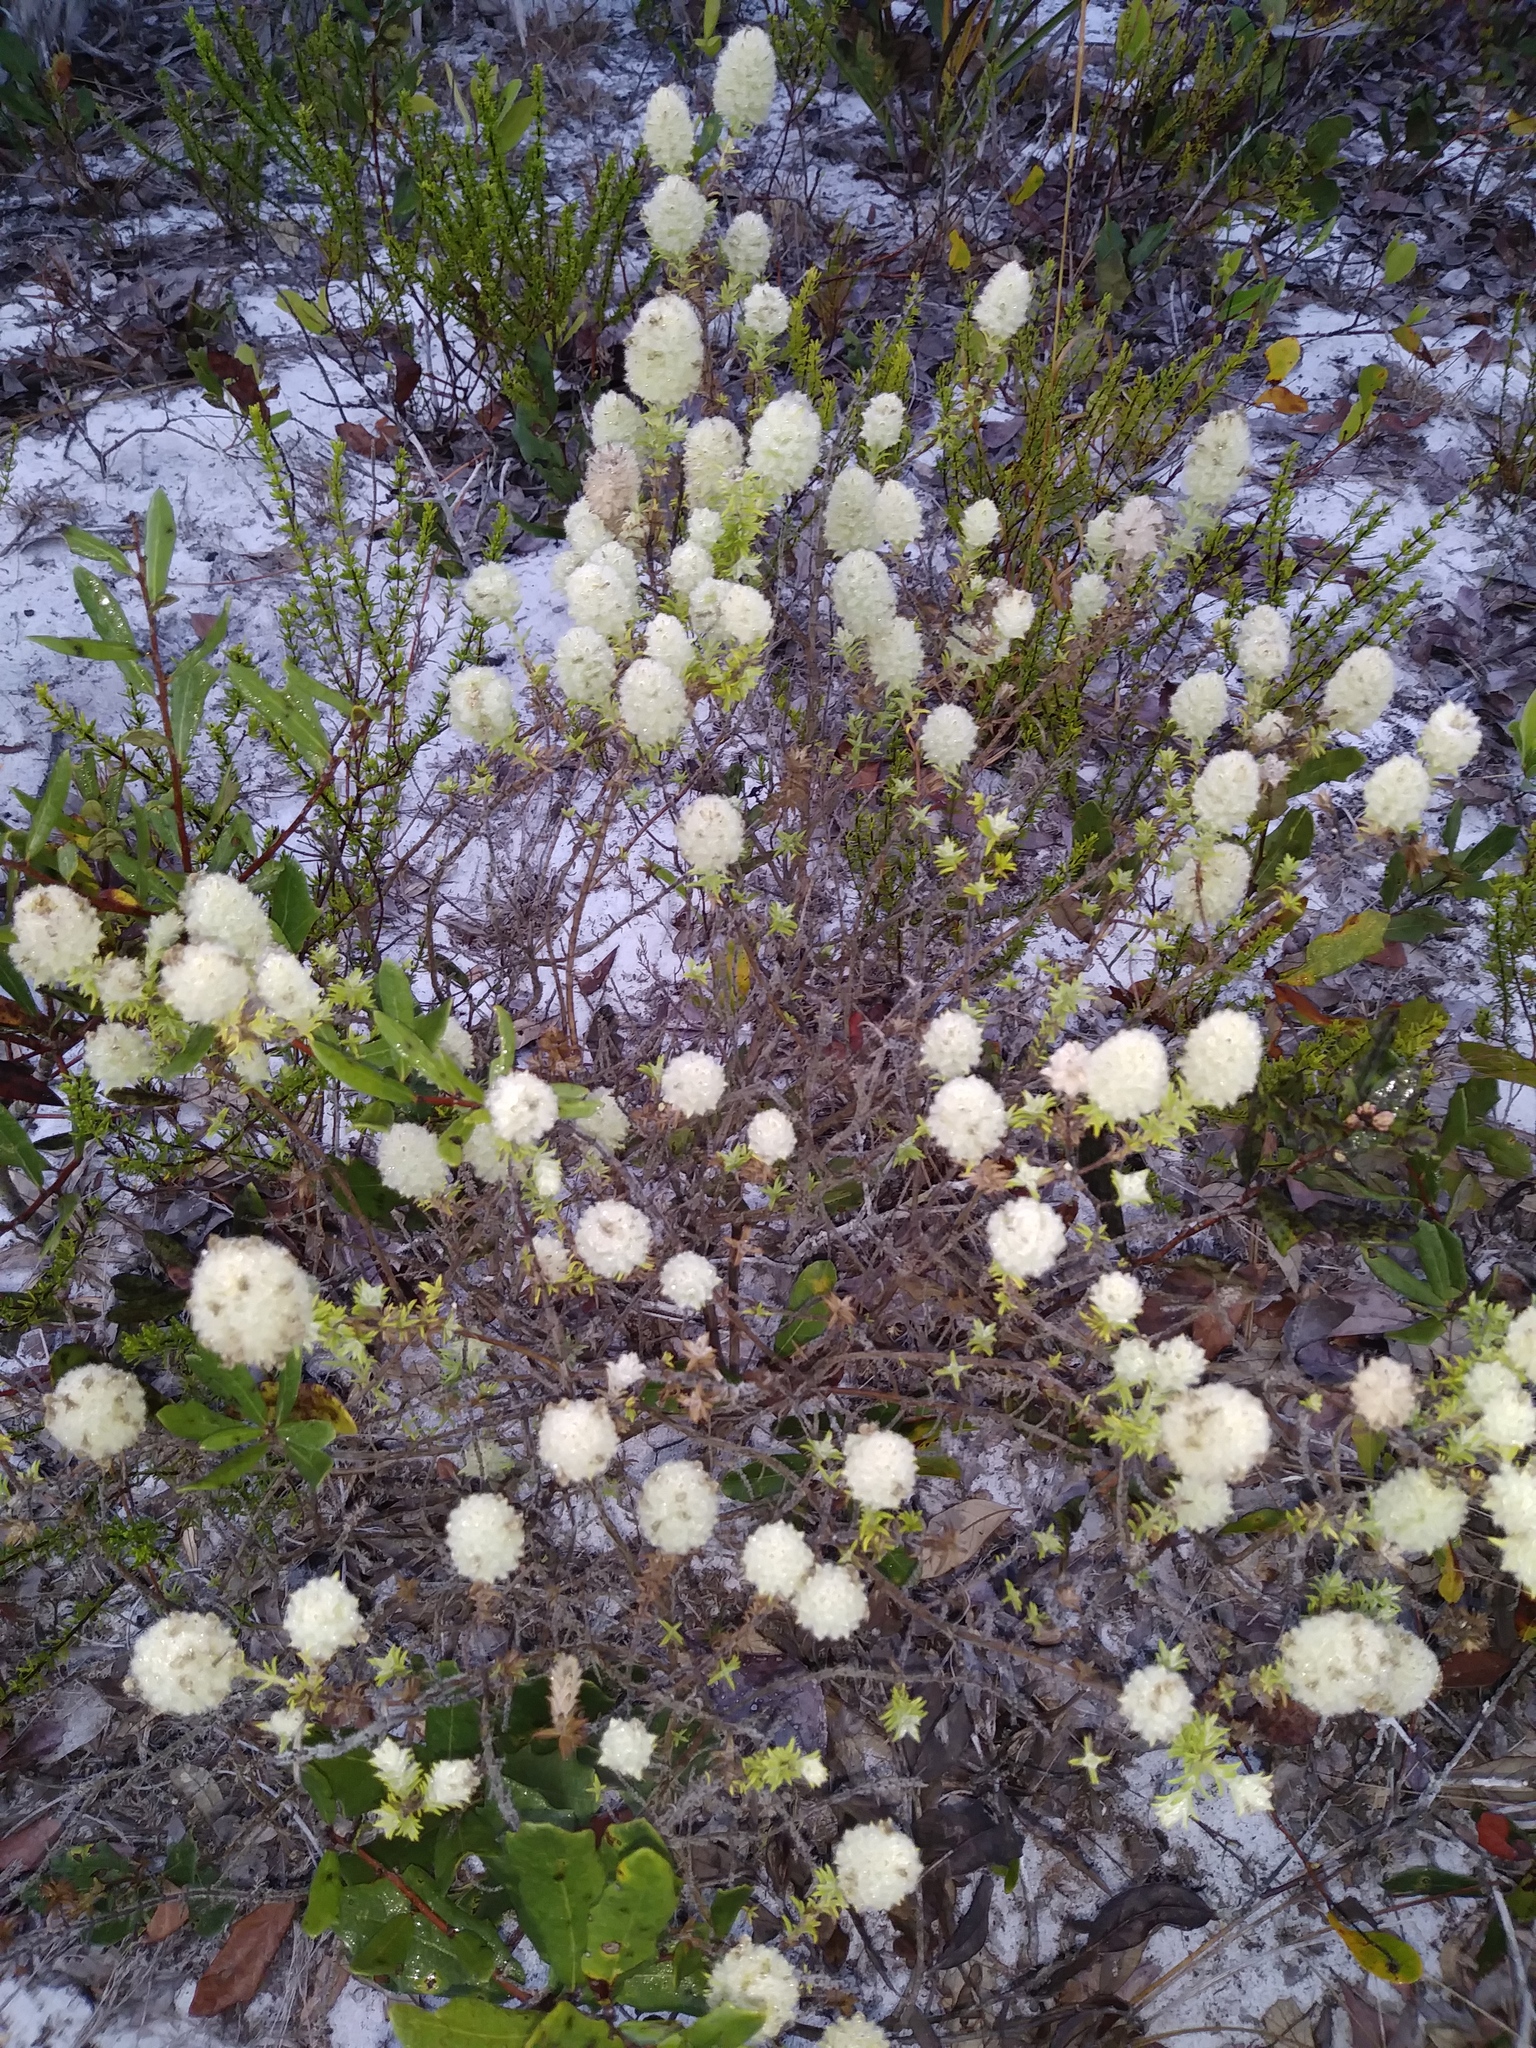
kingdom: Plantae
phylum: Tracheophyta
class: Magnoliopsida
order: Lamiales
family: Lamiaceae
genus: Piloblephis
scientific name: Piloblephis rigida
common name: Wild pennyroyal
